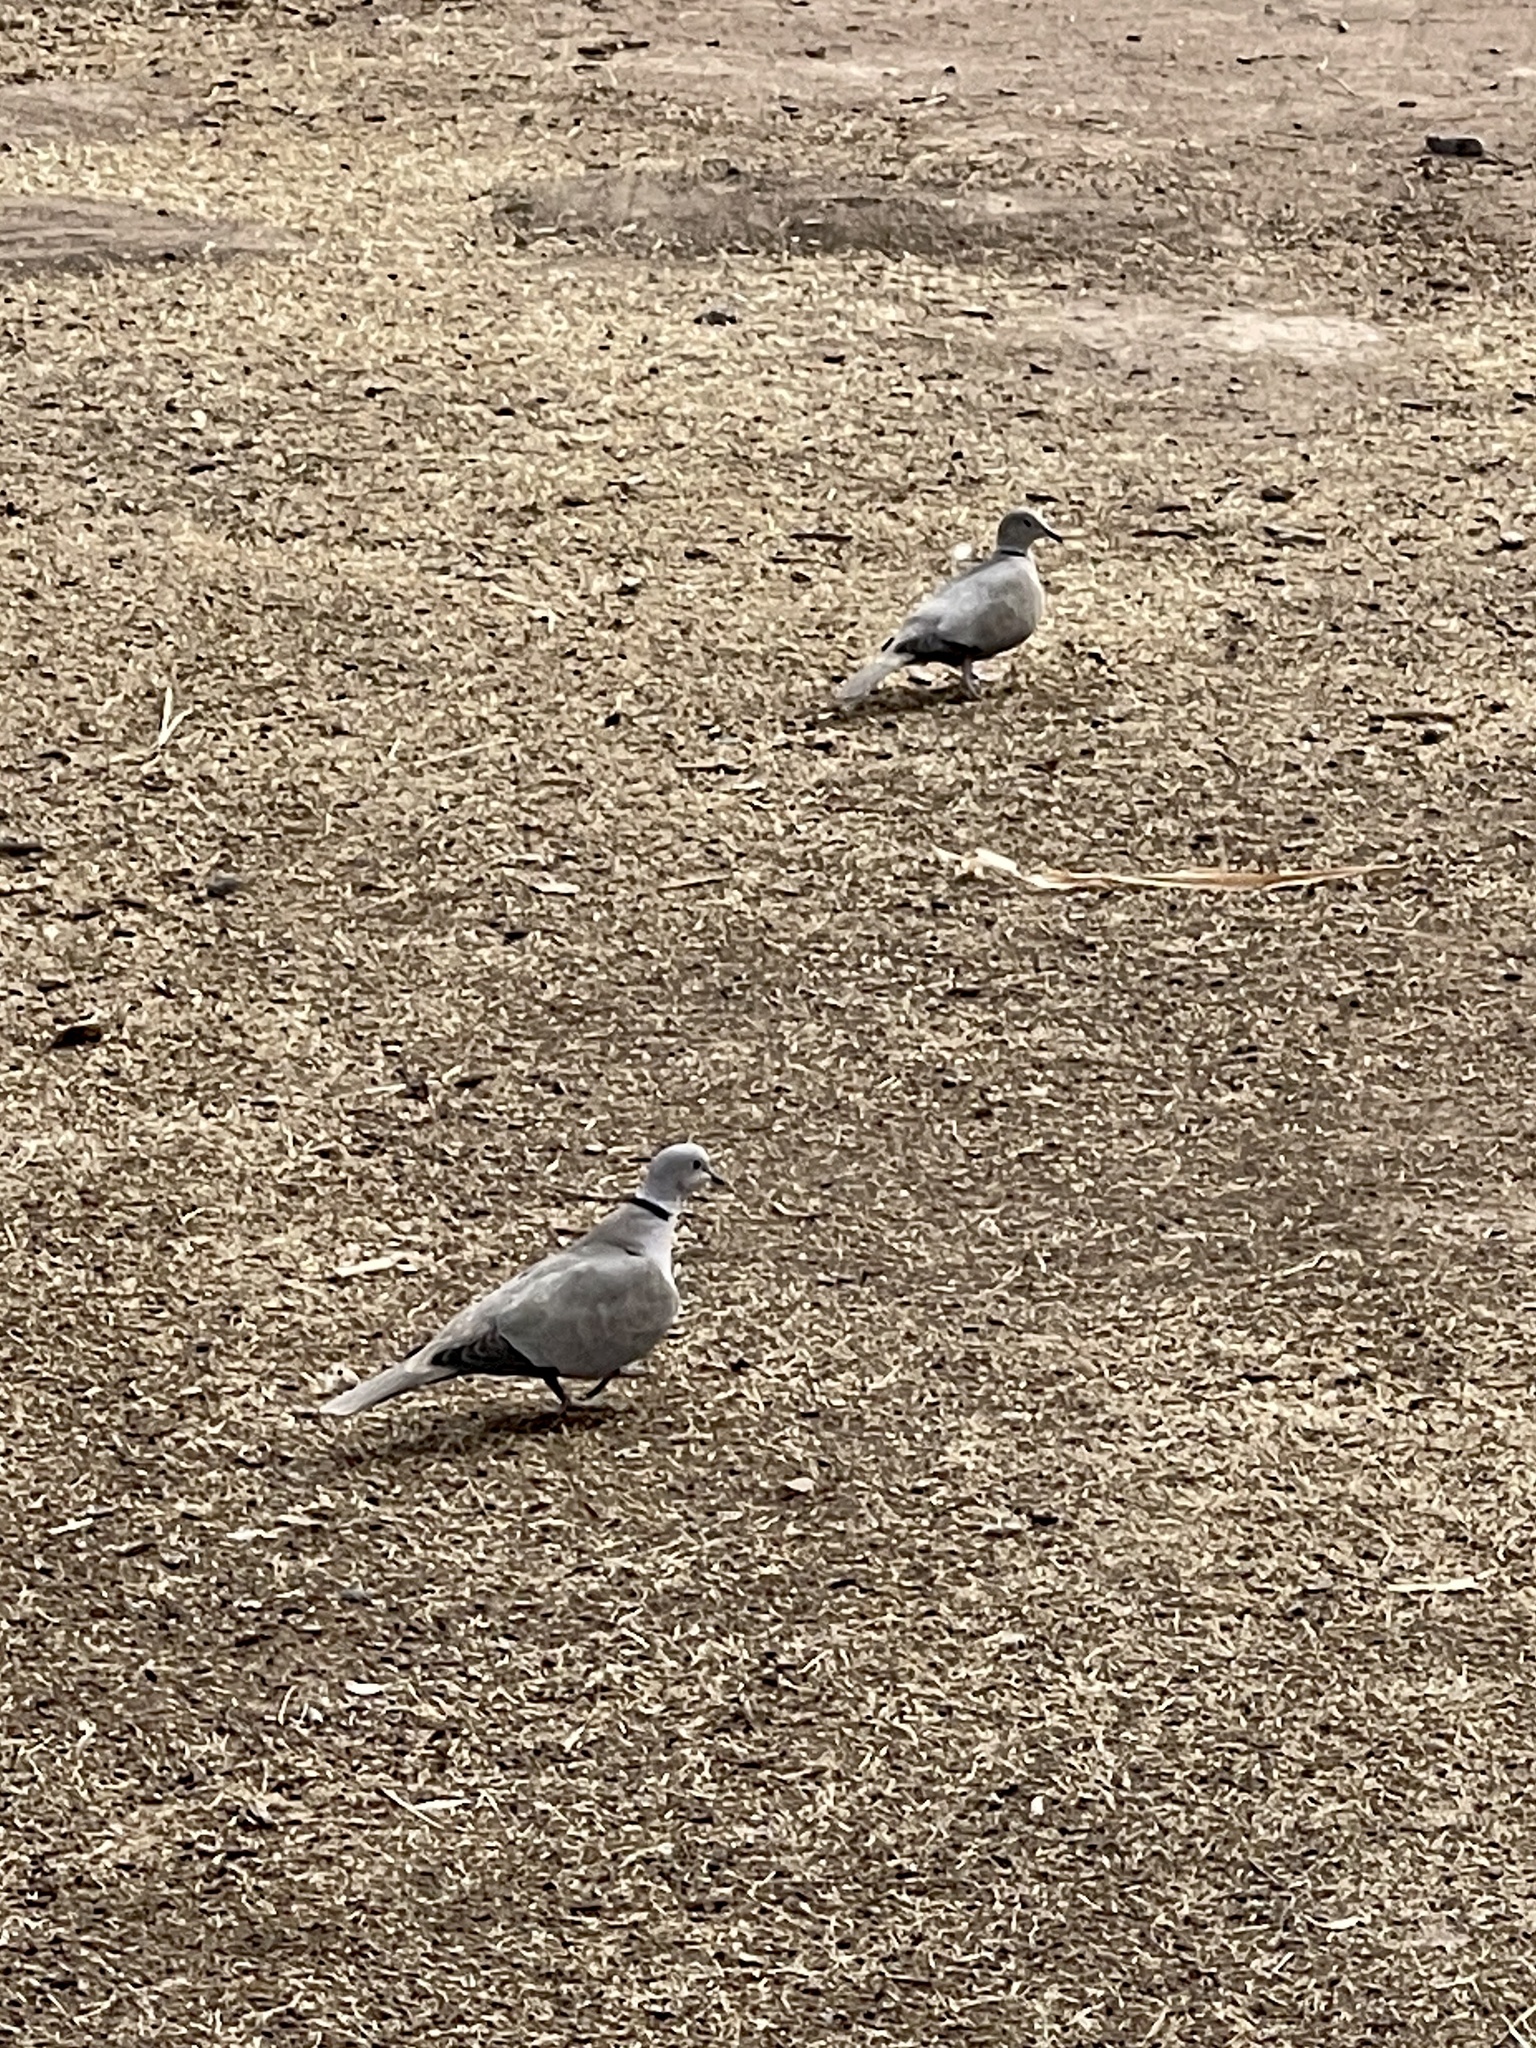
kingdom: Animalia
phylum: Chordata
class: Aves
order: Columbiformes
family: Columbidae
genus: Streptopelia
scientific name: Streptopelia decaocto
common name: Eurasian collared dove
